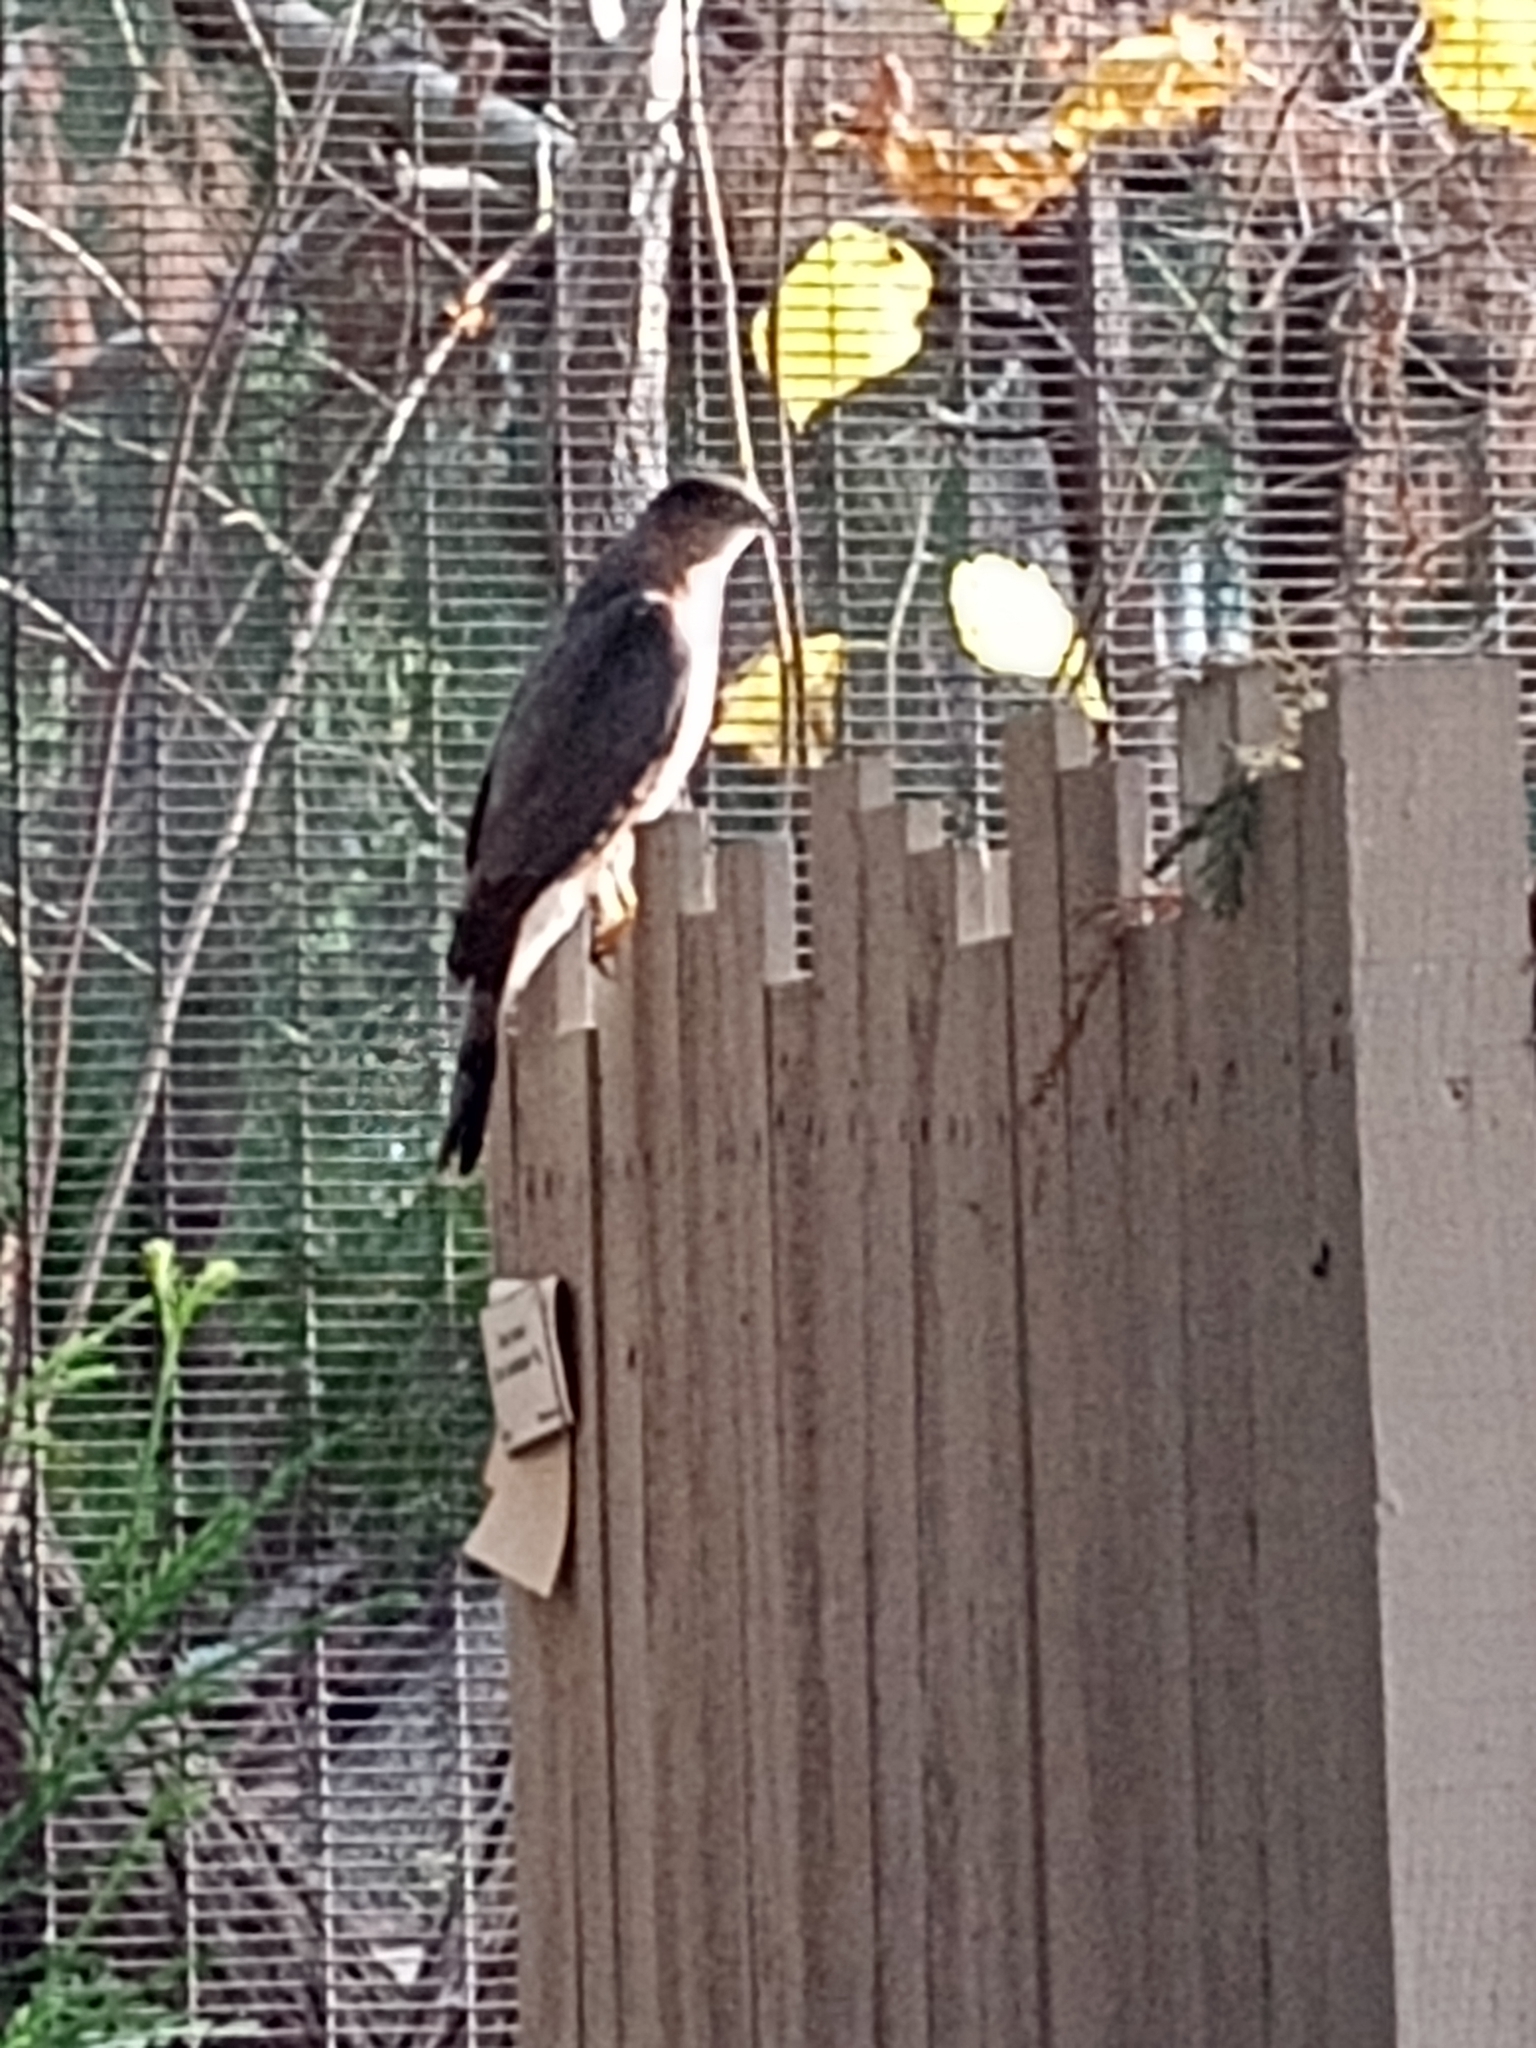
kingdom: Animalia
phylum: Chordata
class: Aves
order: Accipitriformes
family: Accipitridae
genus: Accipiter
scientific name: Accipiter cooperii
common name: Cooper's hawk
